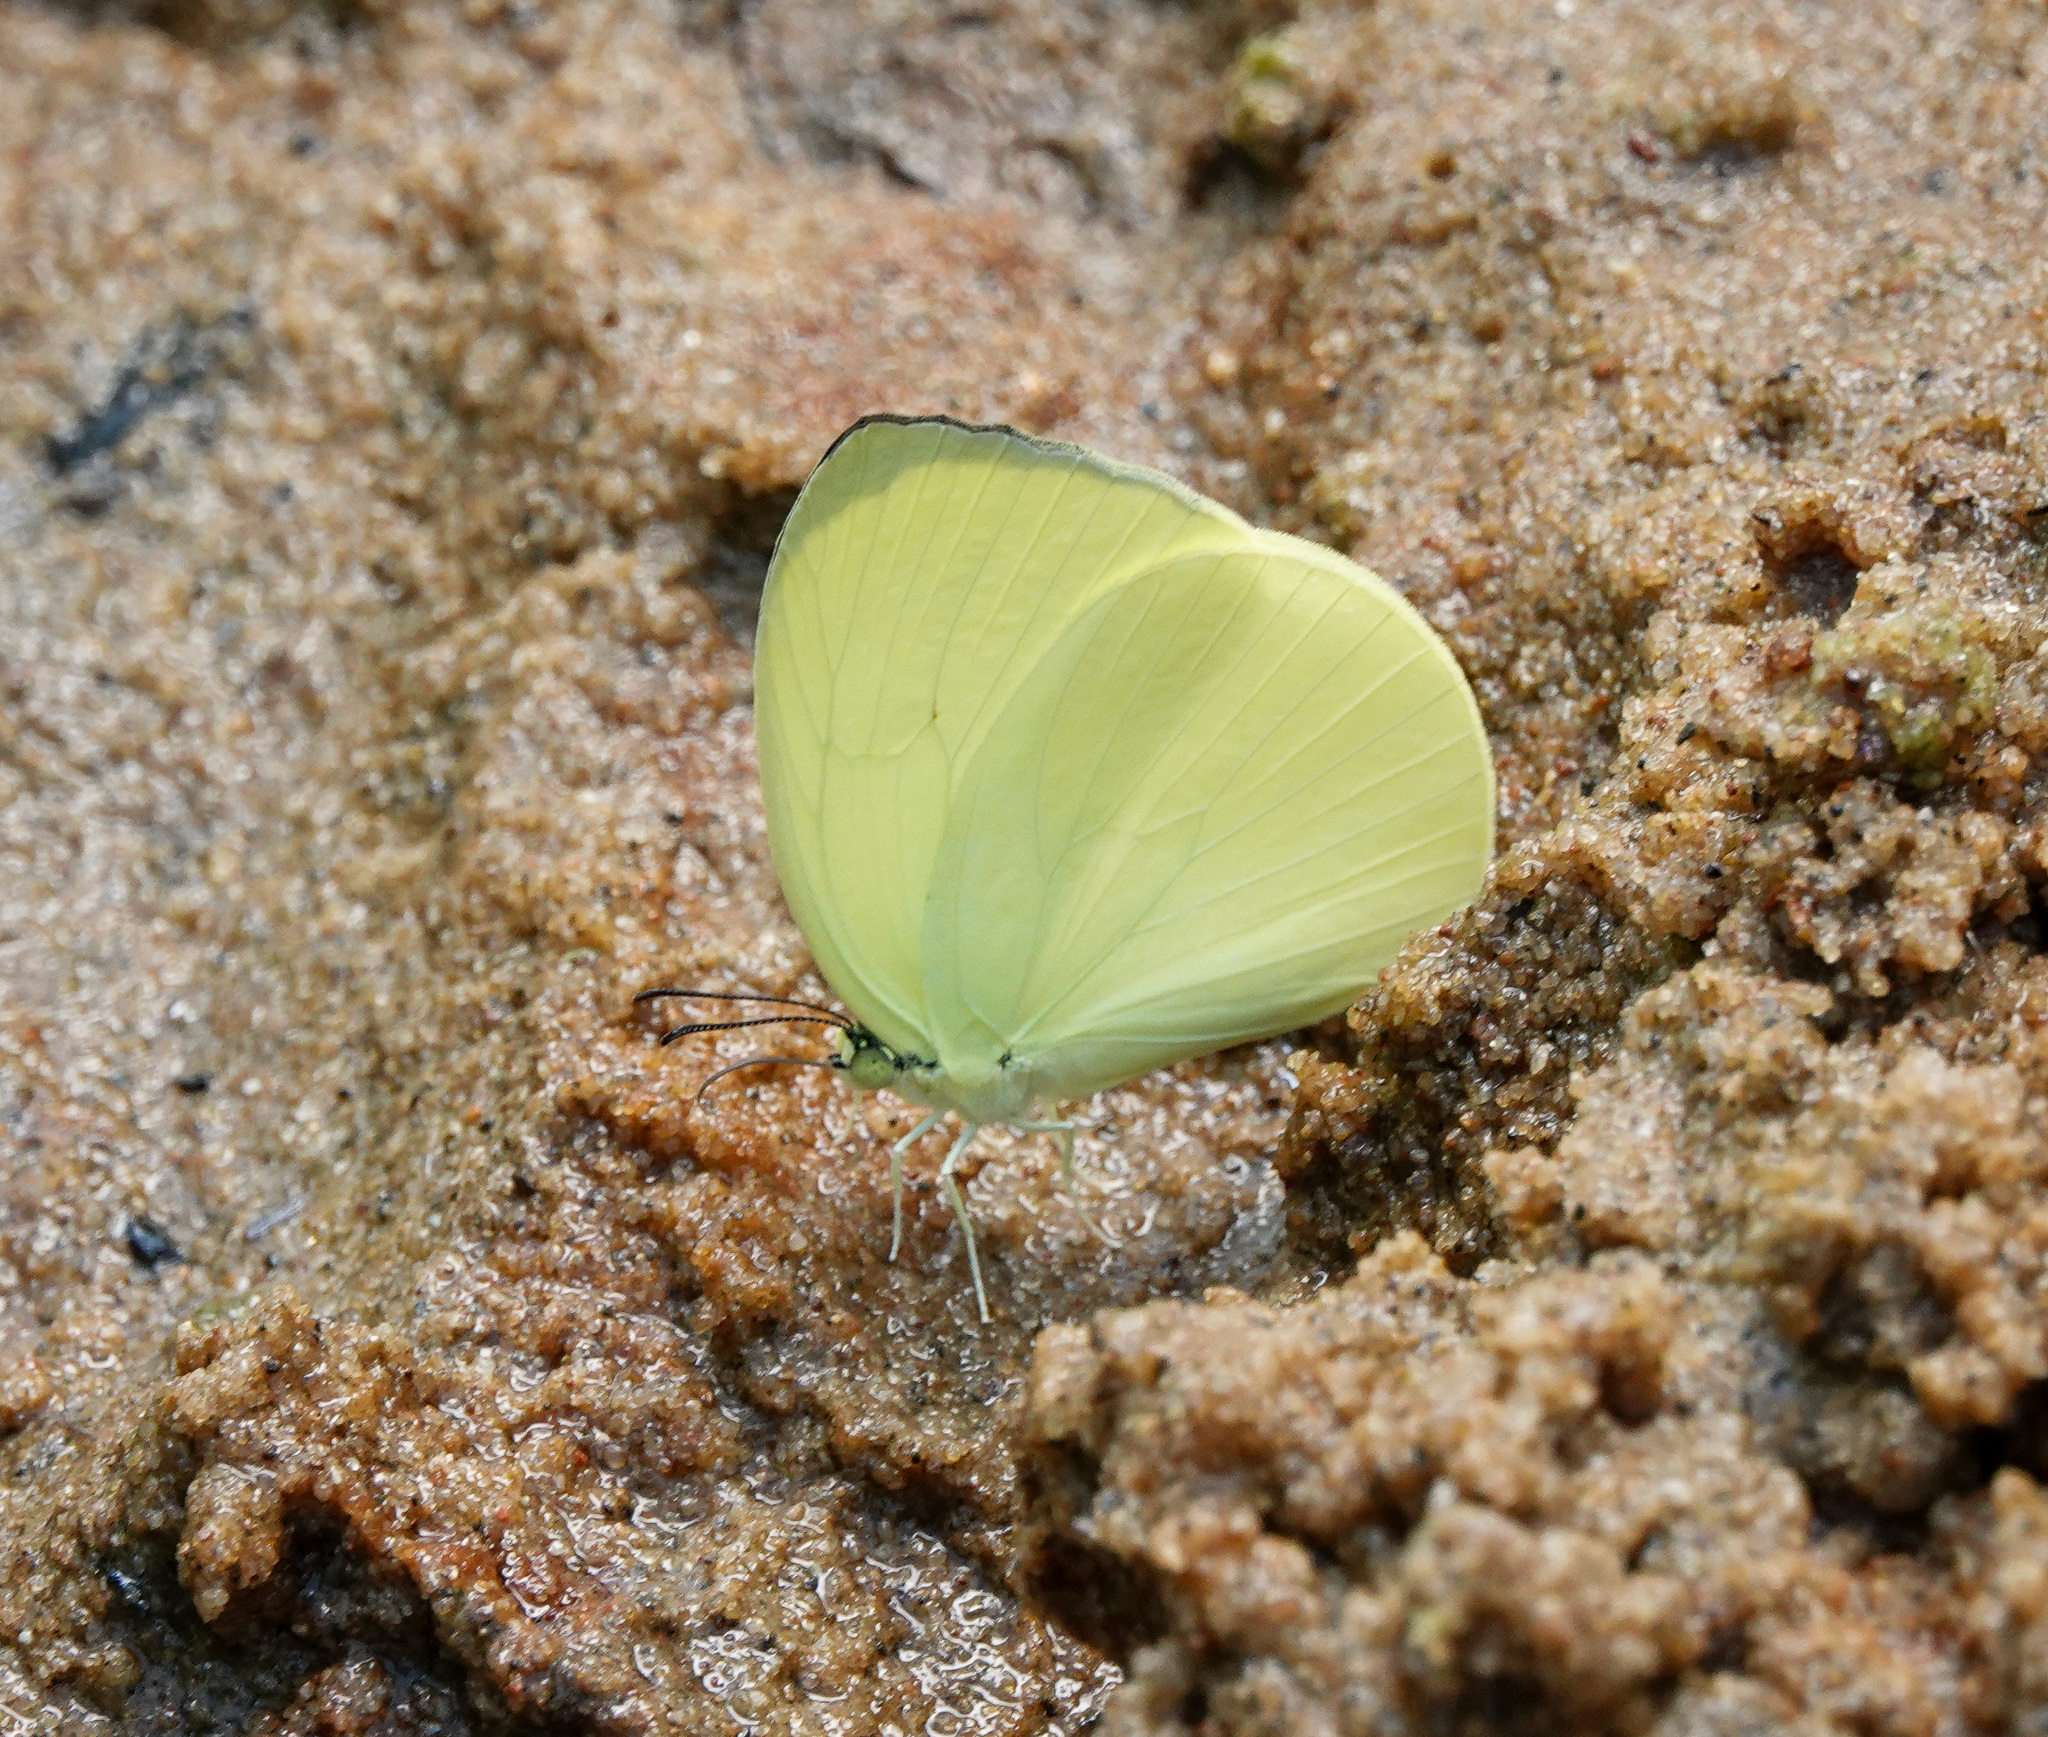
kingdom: Animalia
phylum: Arthropoda
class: Insecta
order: Lepidoptera
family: Pieridae
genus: Gandaca
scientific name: Gandaca harina
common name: Tree yellow
